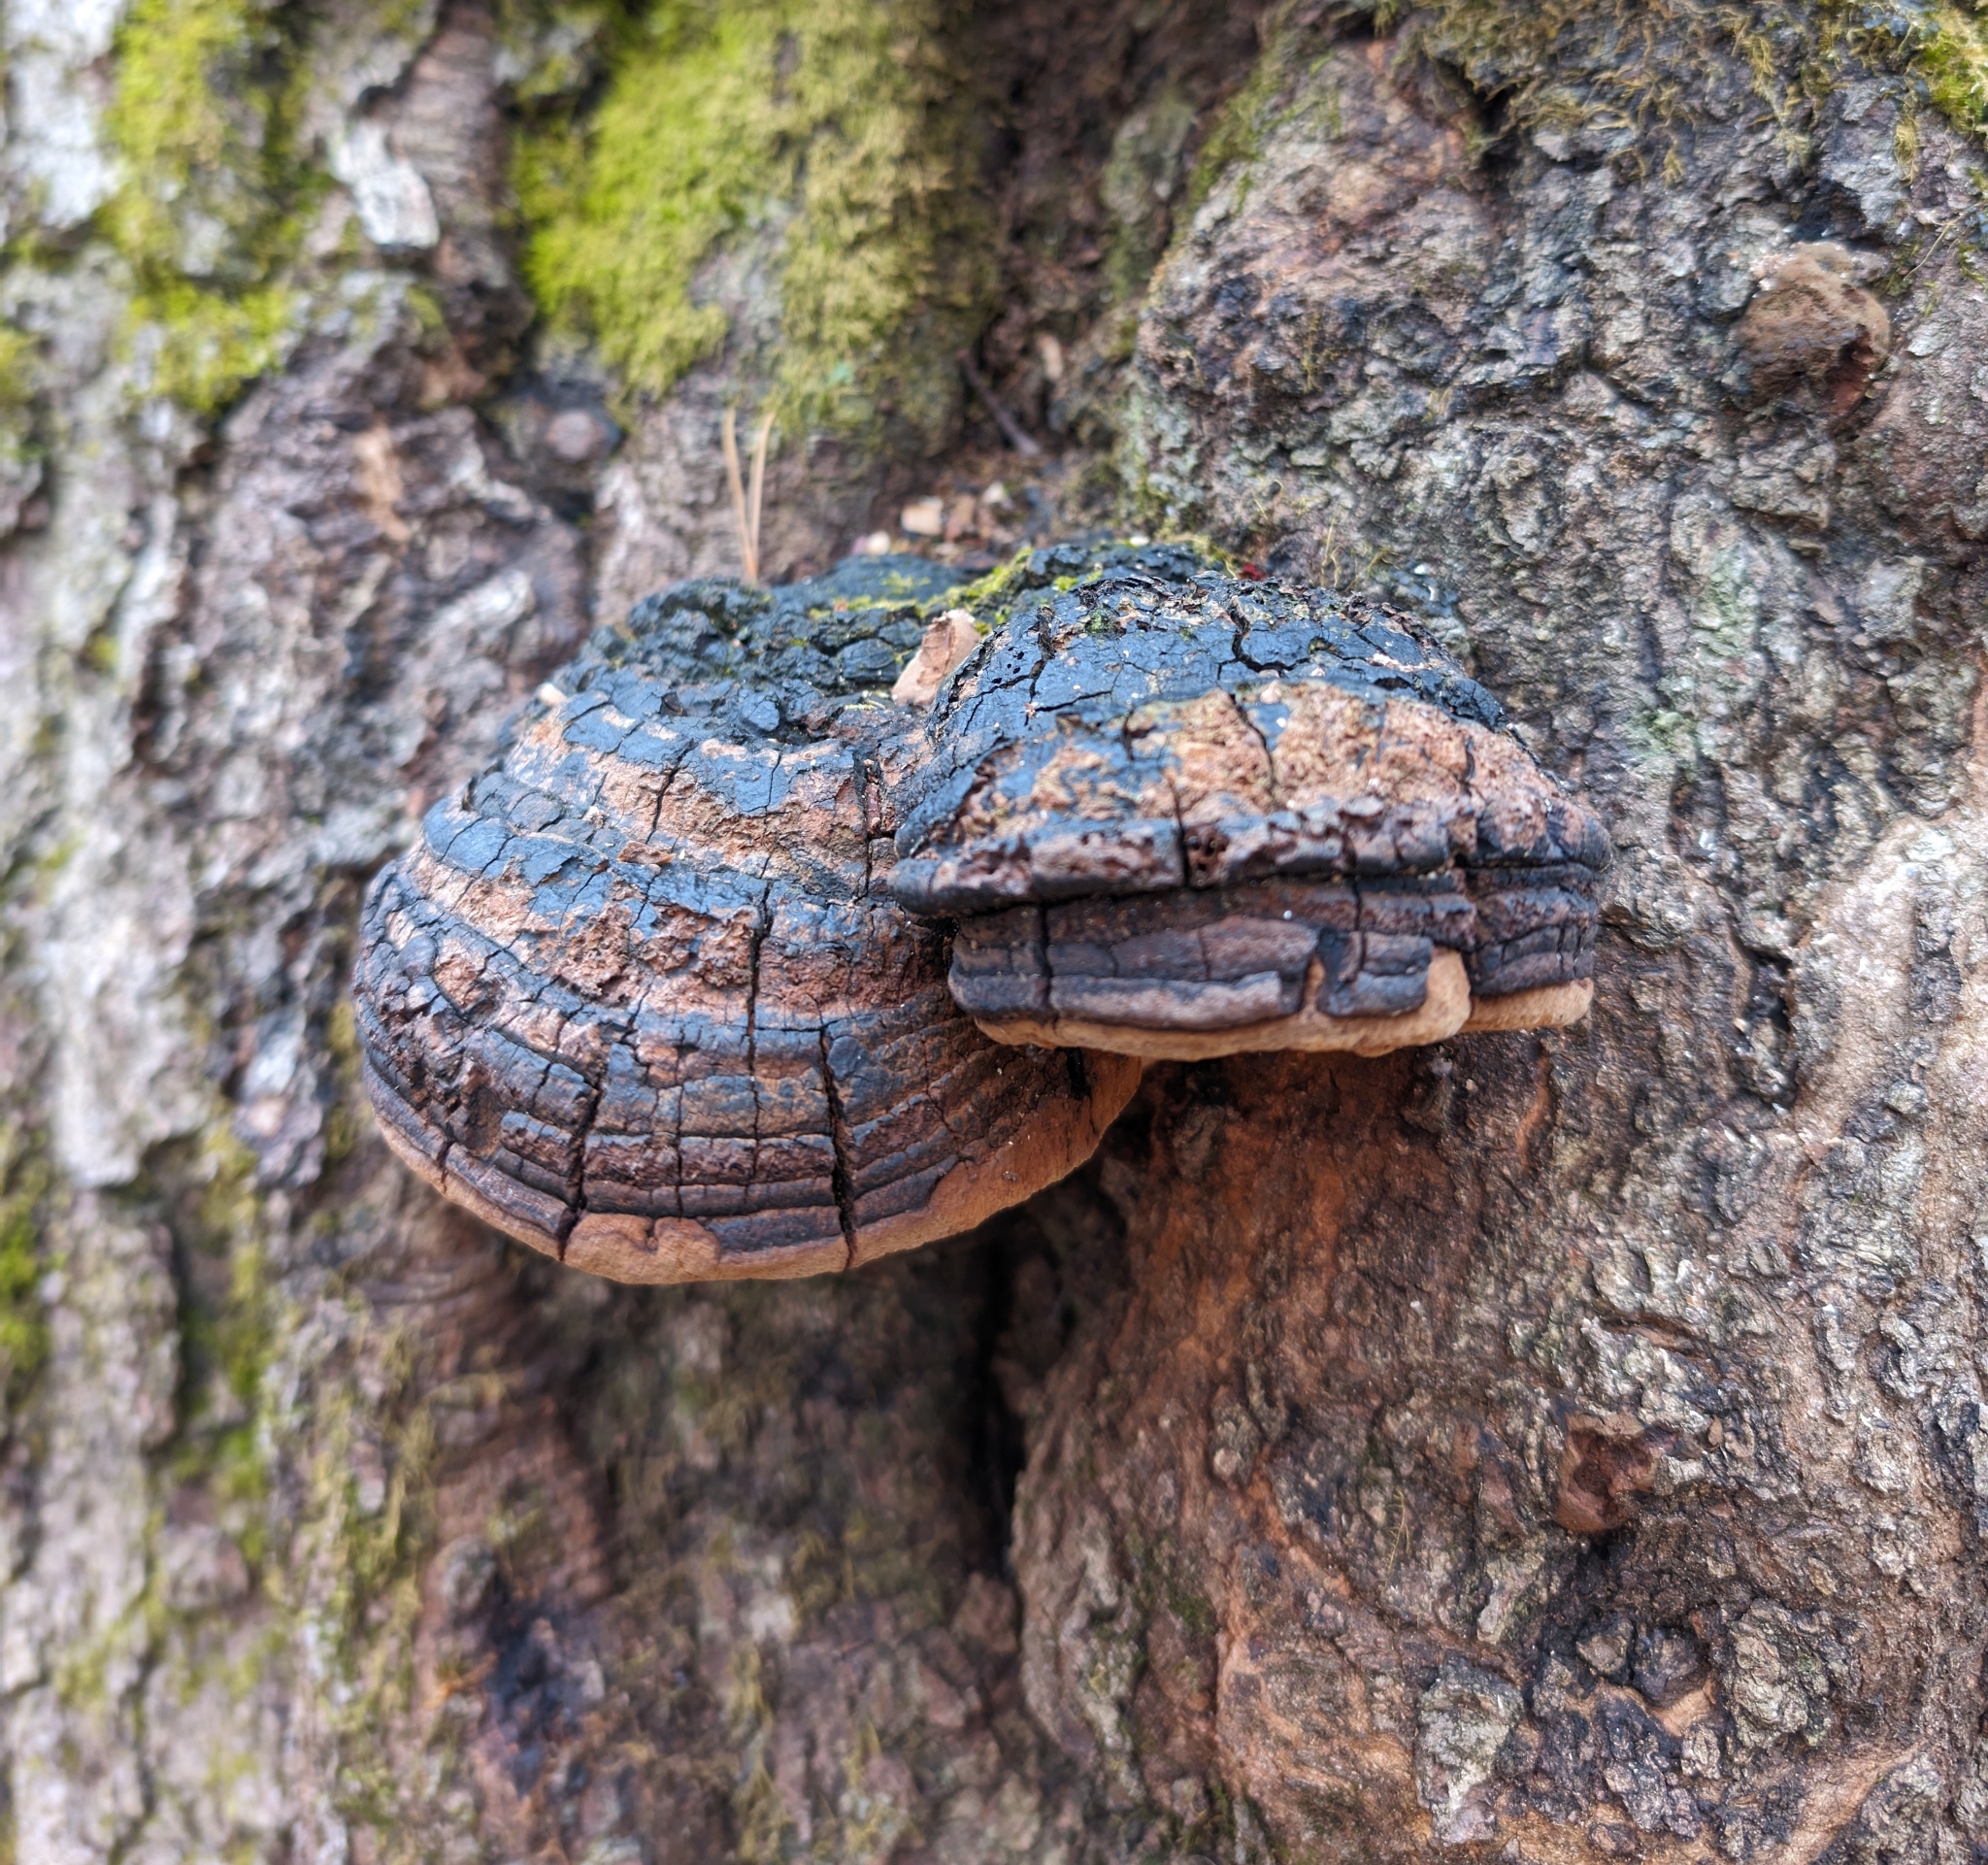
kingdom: Fungi
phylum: Basidiomycota
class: Agaricomycetes
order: Hymenochaetales
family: Hymenochaetaceae
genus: Meganotus
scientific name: Meganotus everhartii
